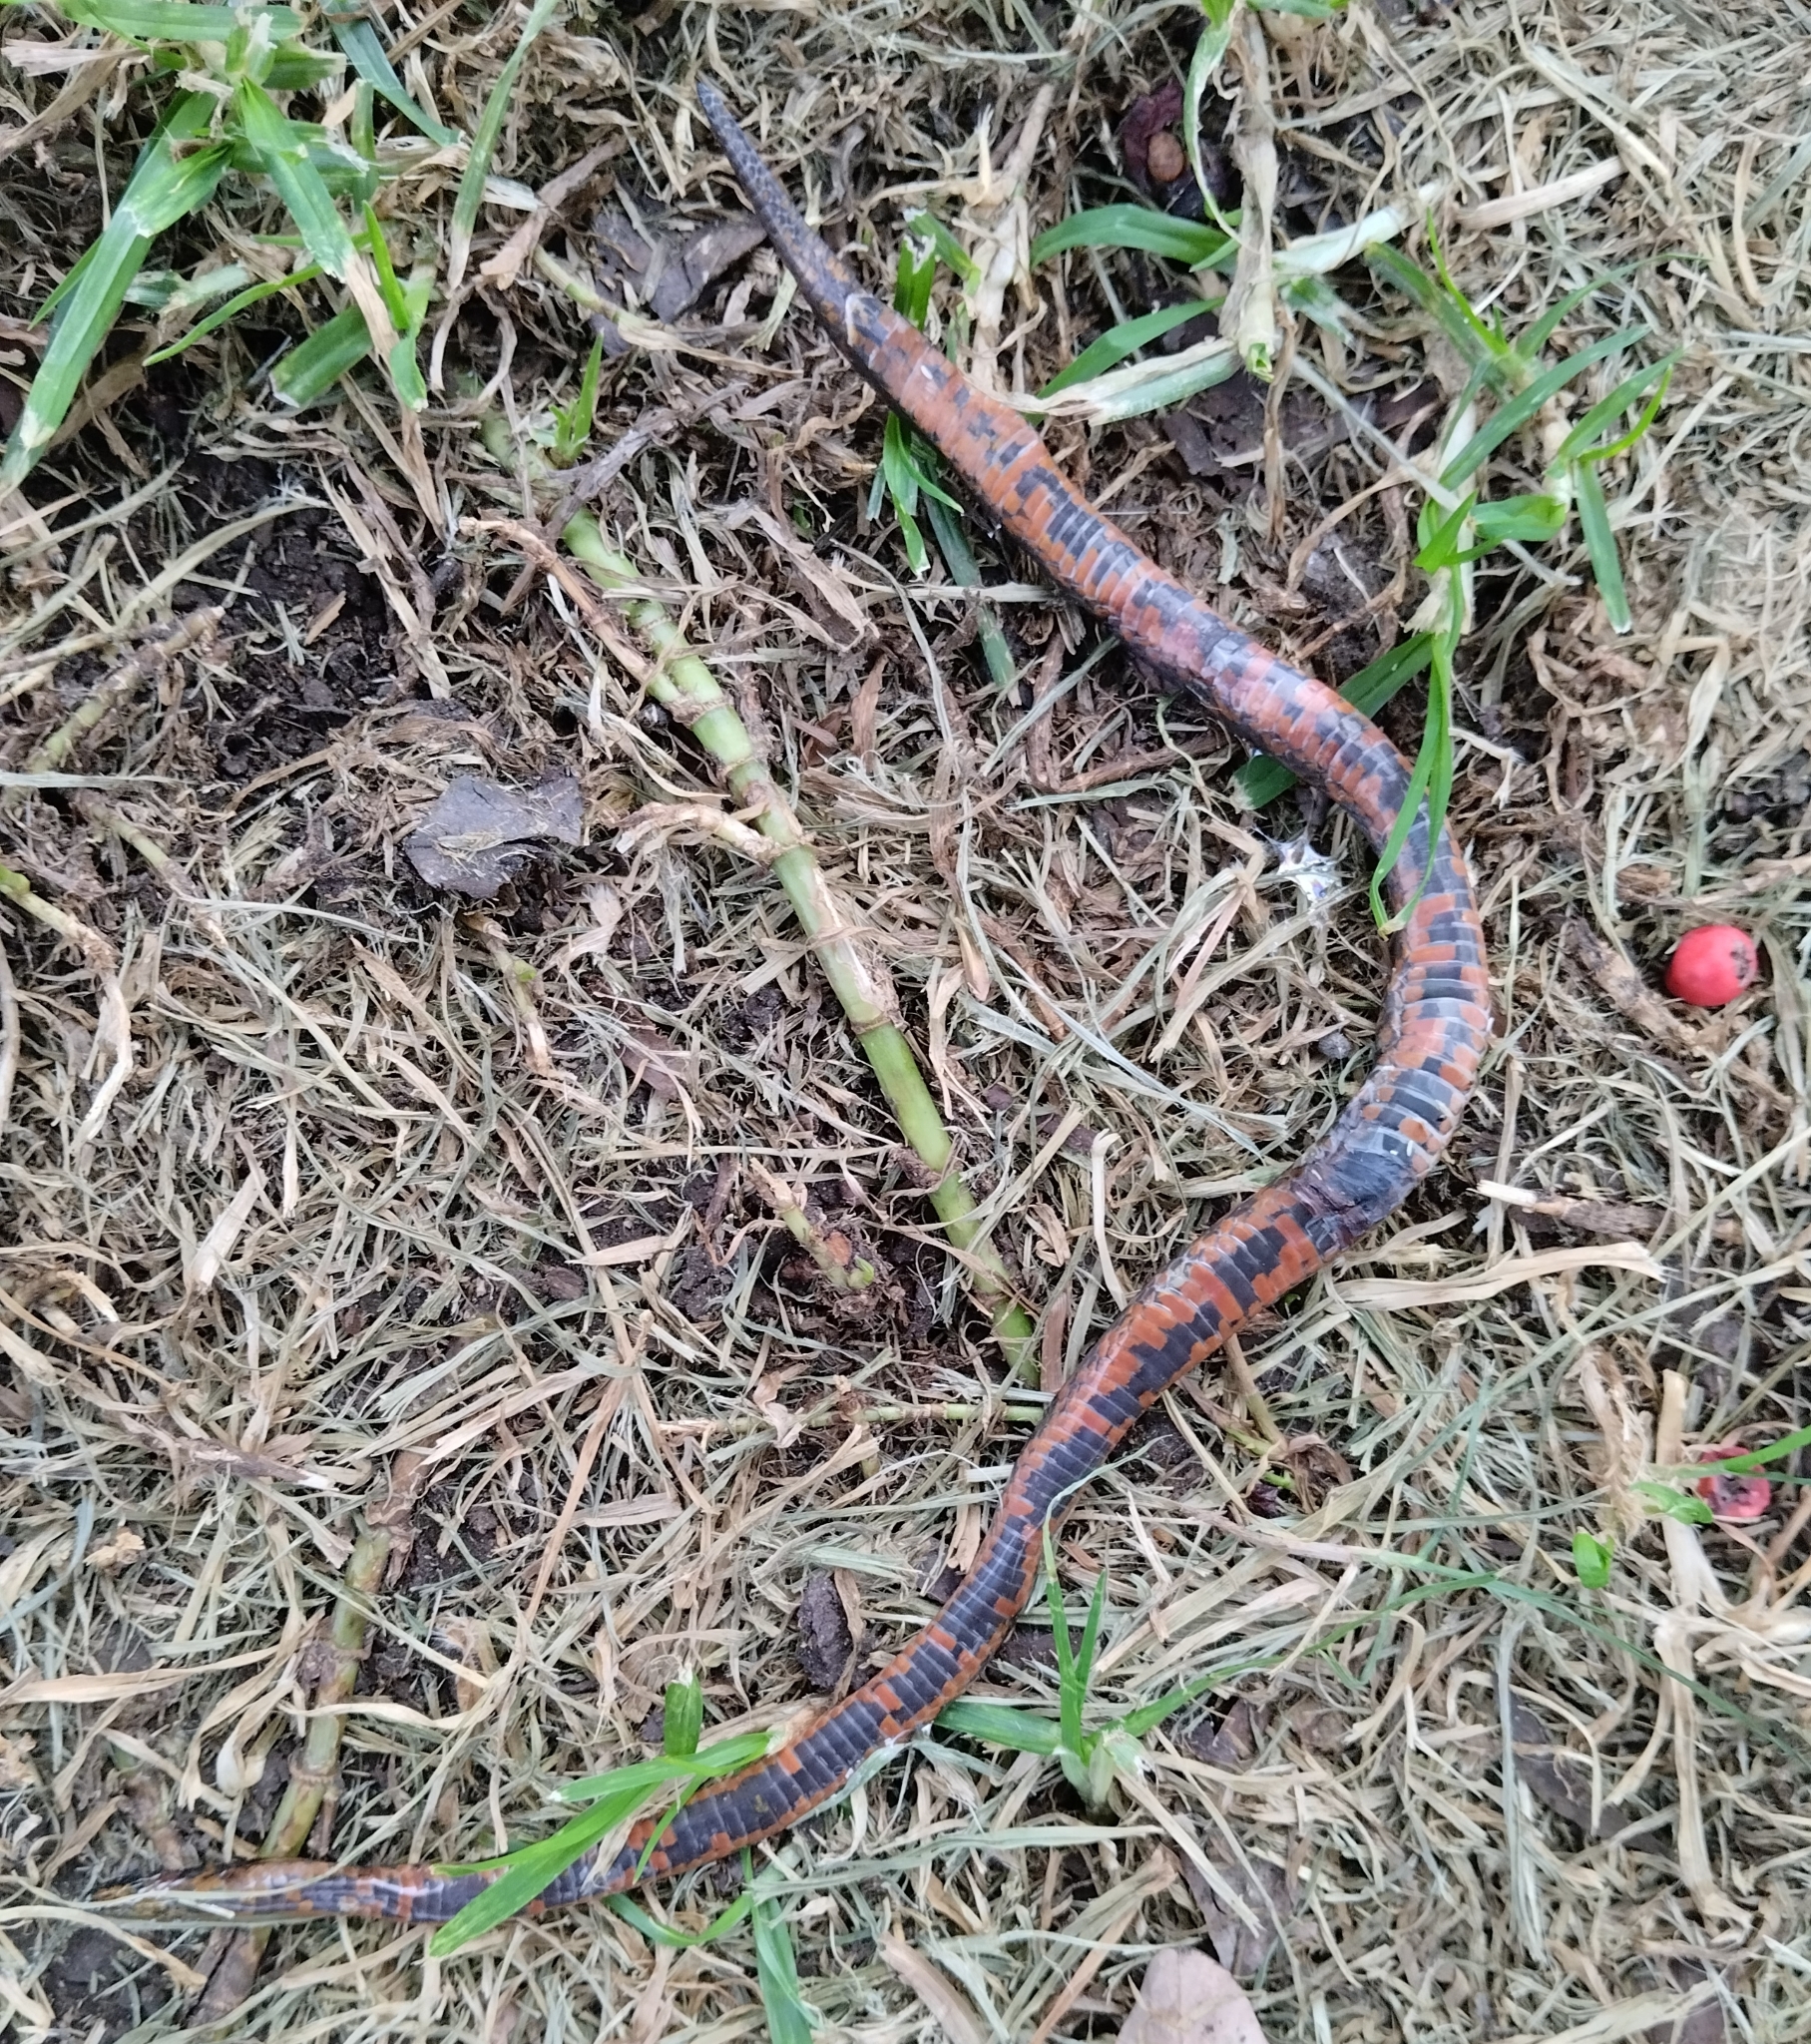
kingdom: Animalia
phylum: Chordata
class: Squamata
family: Colubridae
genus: Atractus
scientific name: Atractus crassicaudatus
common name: Thickhead ground snake
